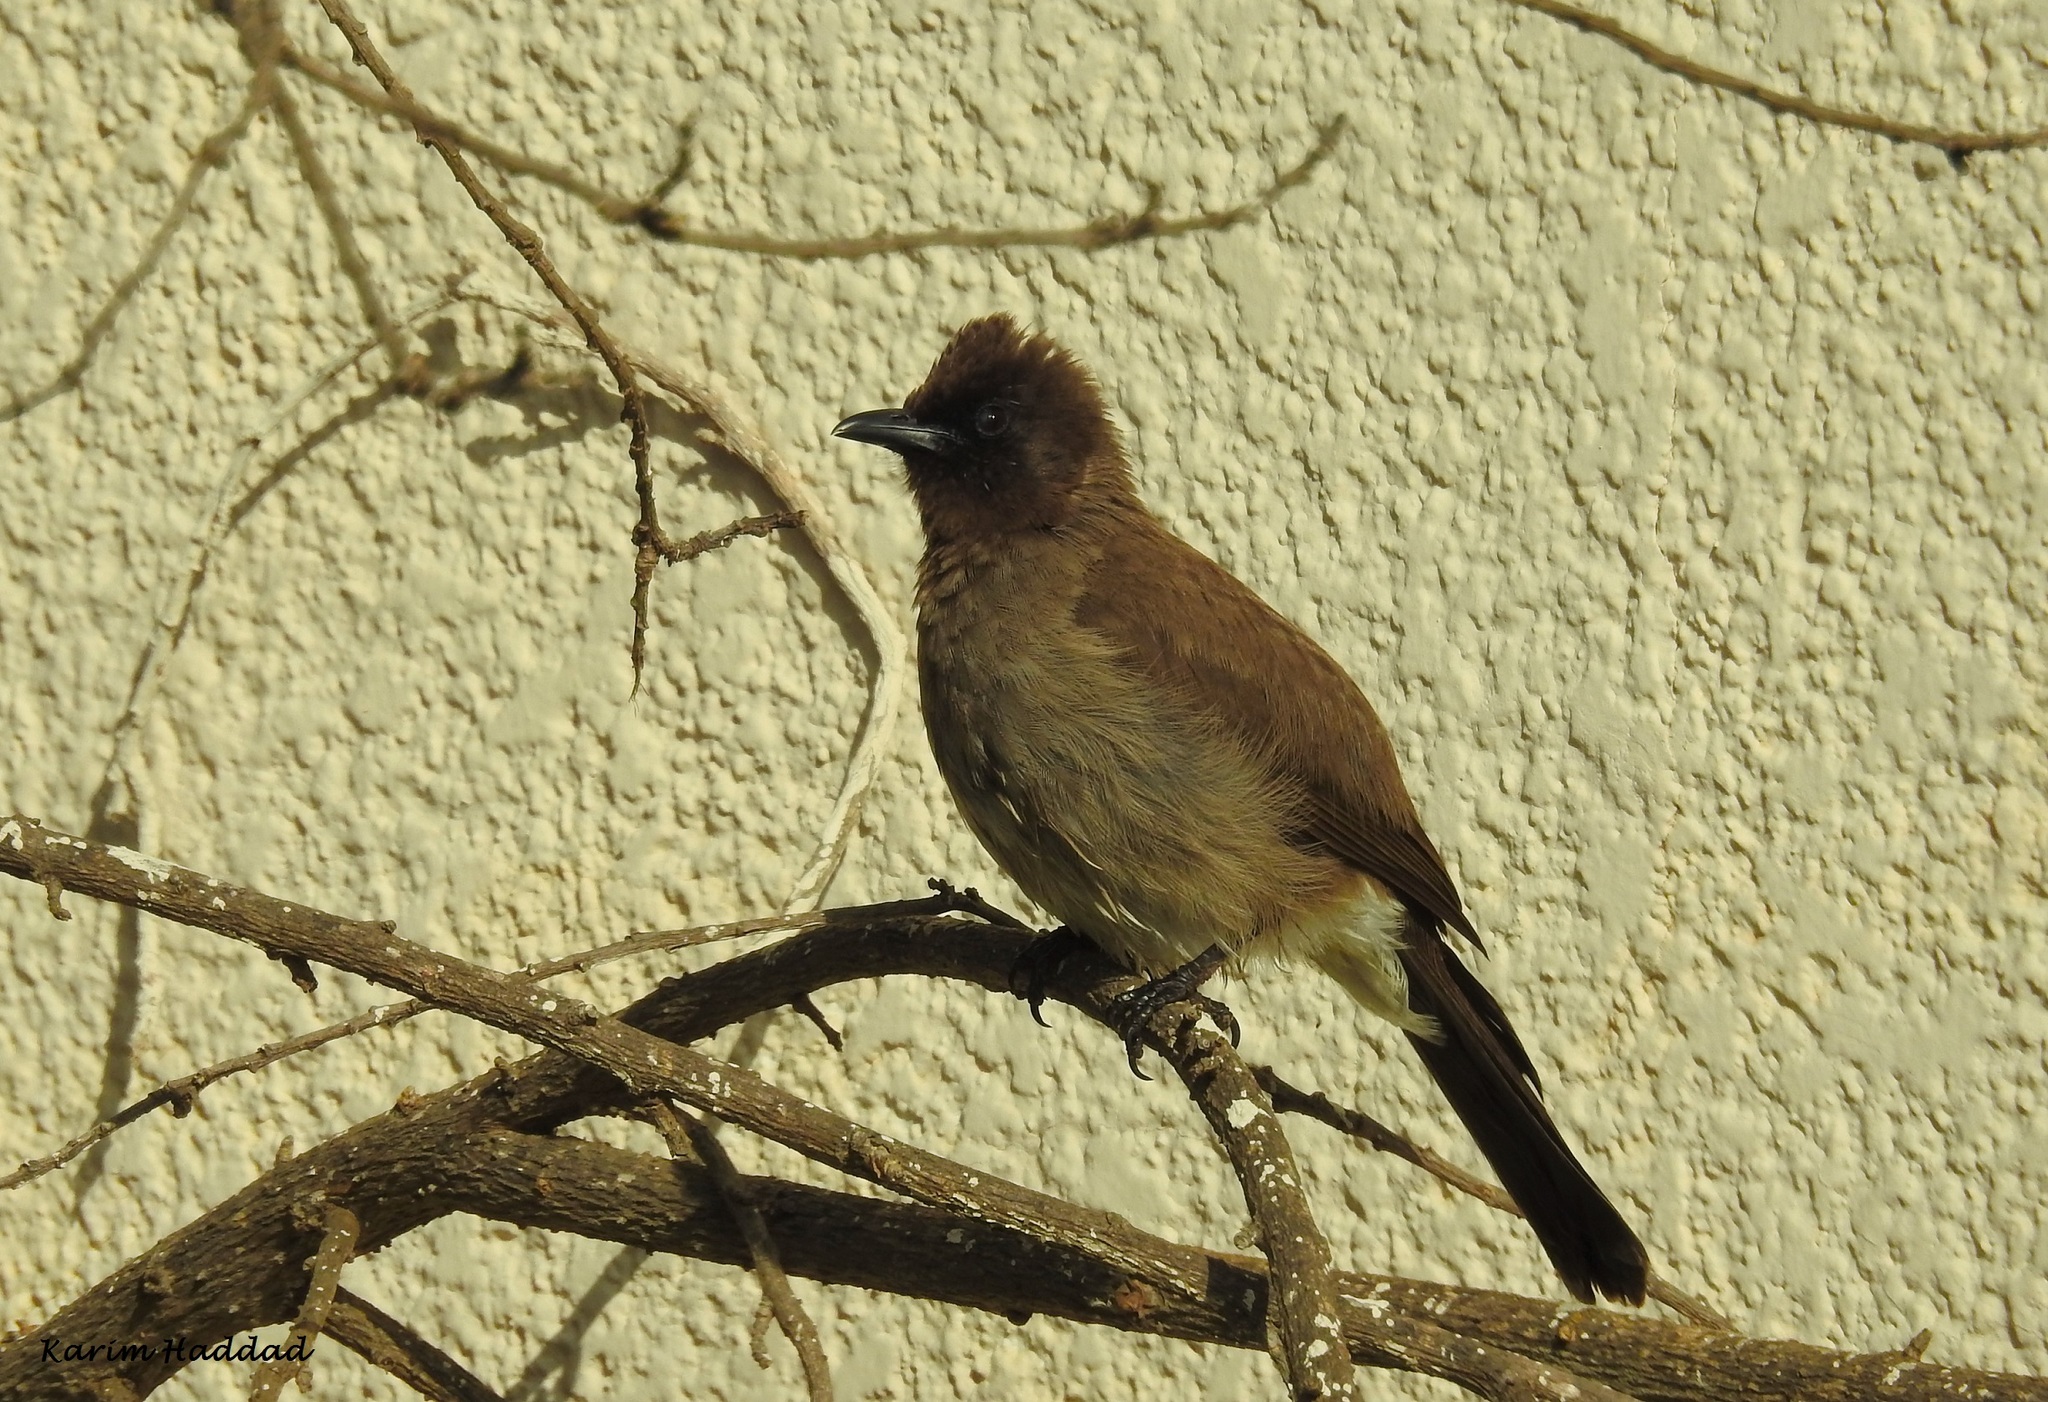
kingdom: Animalia
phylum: Chordata
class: Aves
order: Passeriformes
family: Pycnonotidae
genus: Pycnonotus
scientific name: Pycnonotus barbatus
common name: Common bulbul
